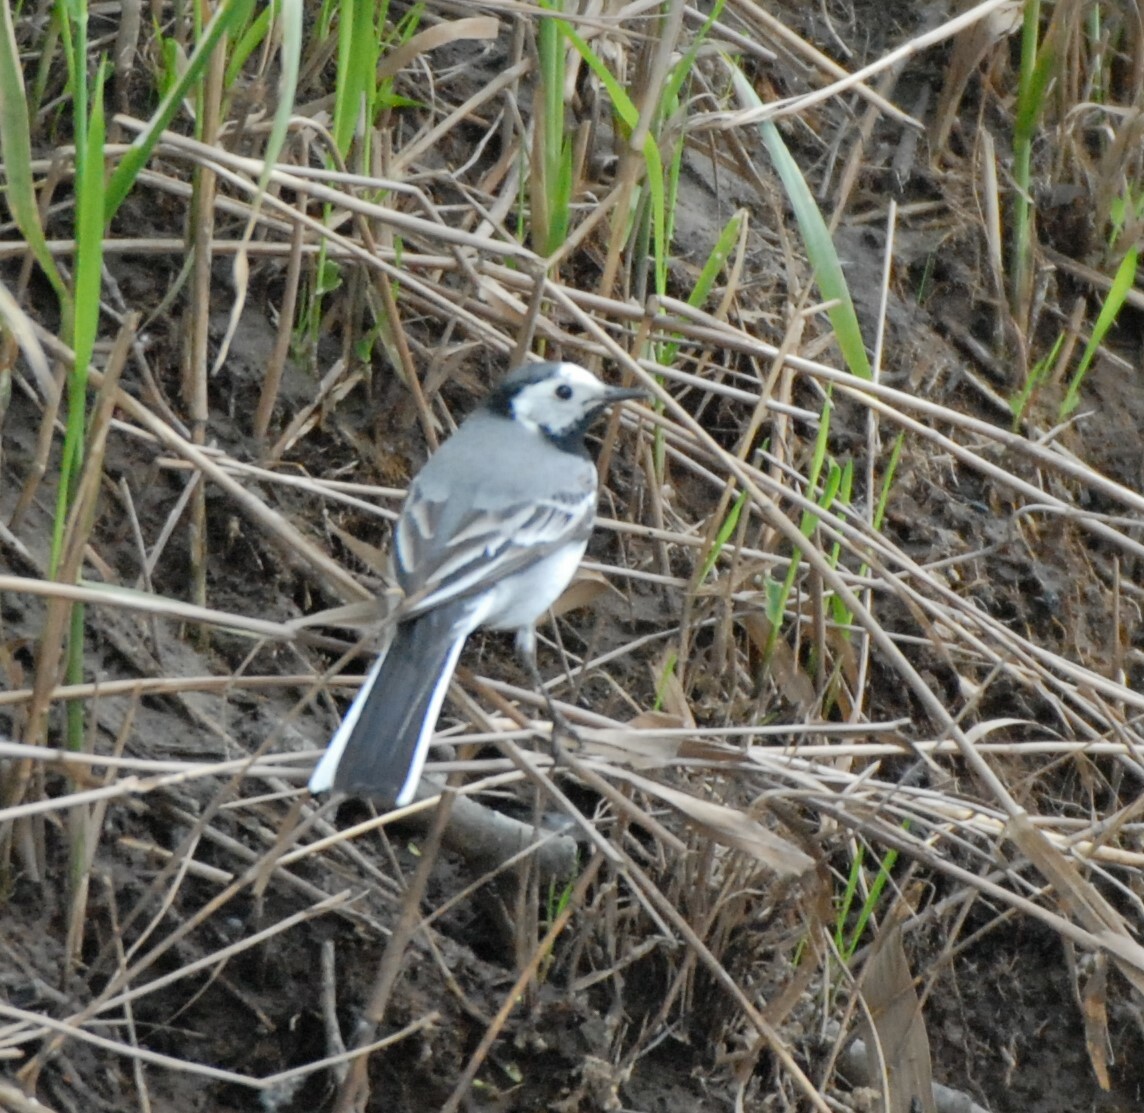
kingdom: Animalia
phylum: Chordata
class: Aves
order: Passeriformes
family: Motacillidae
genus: Motacilla
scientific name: Motacilla alba
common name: White wagtail
